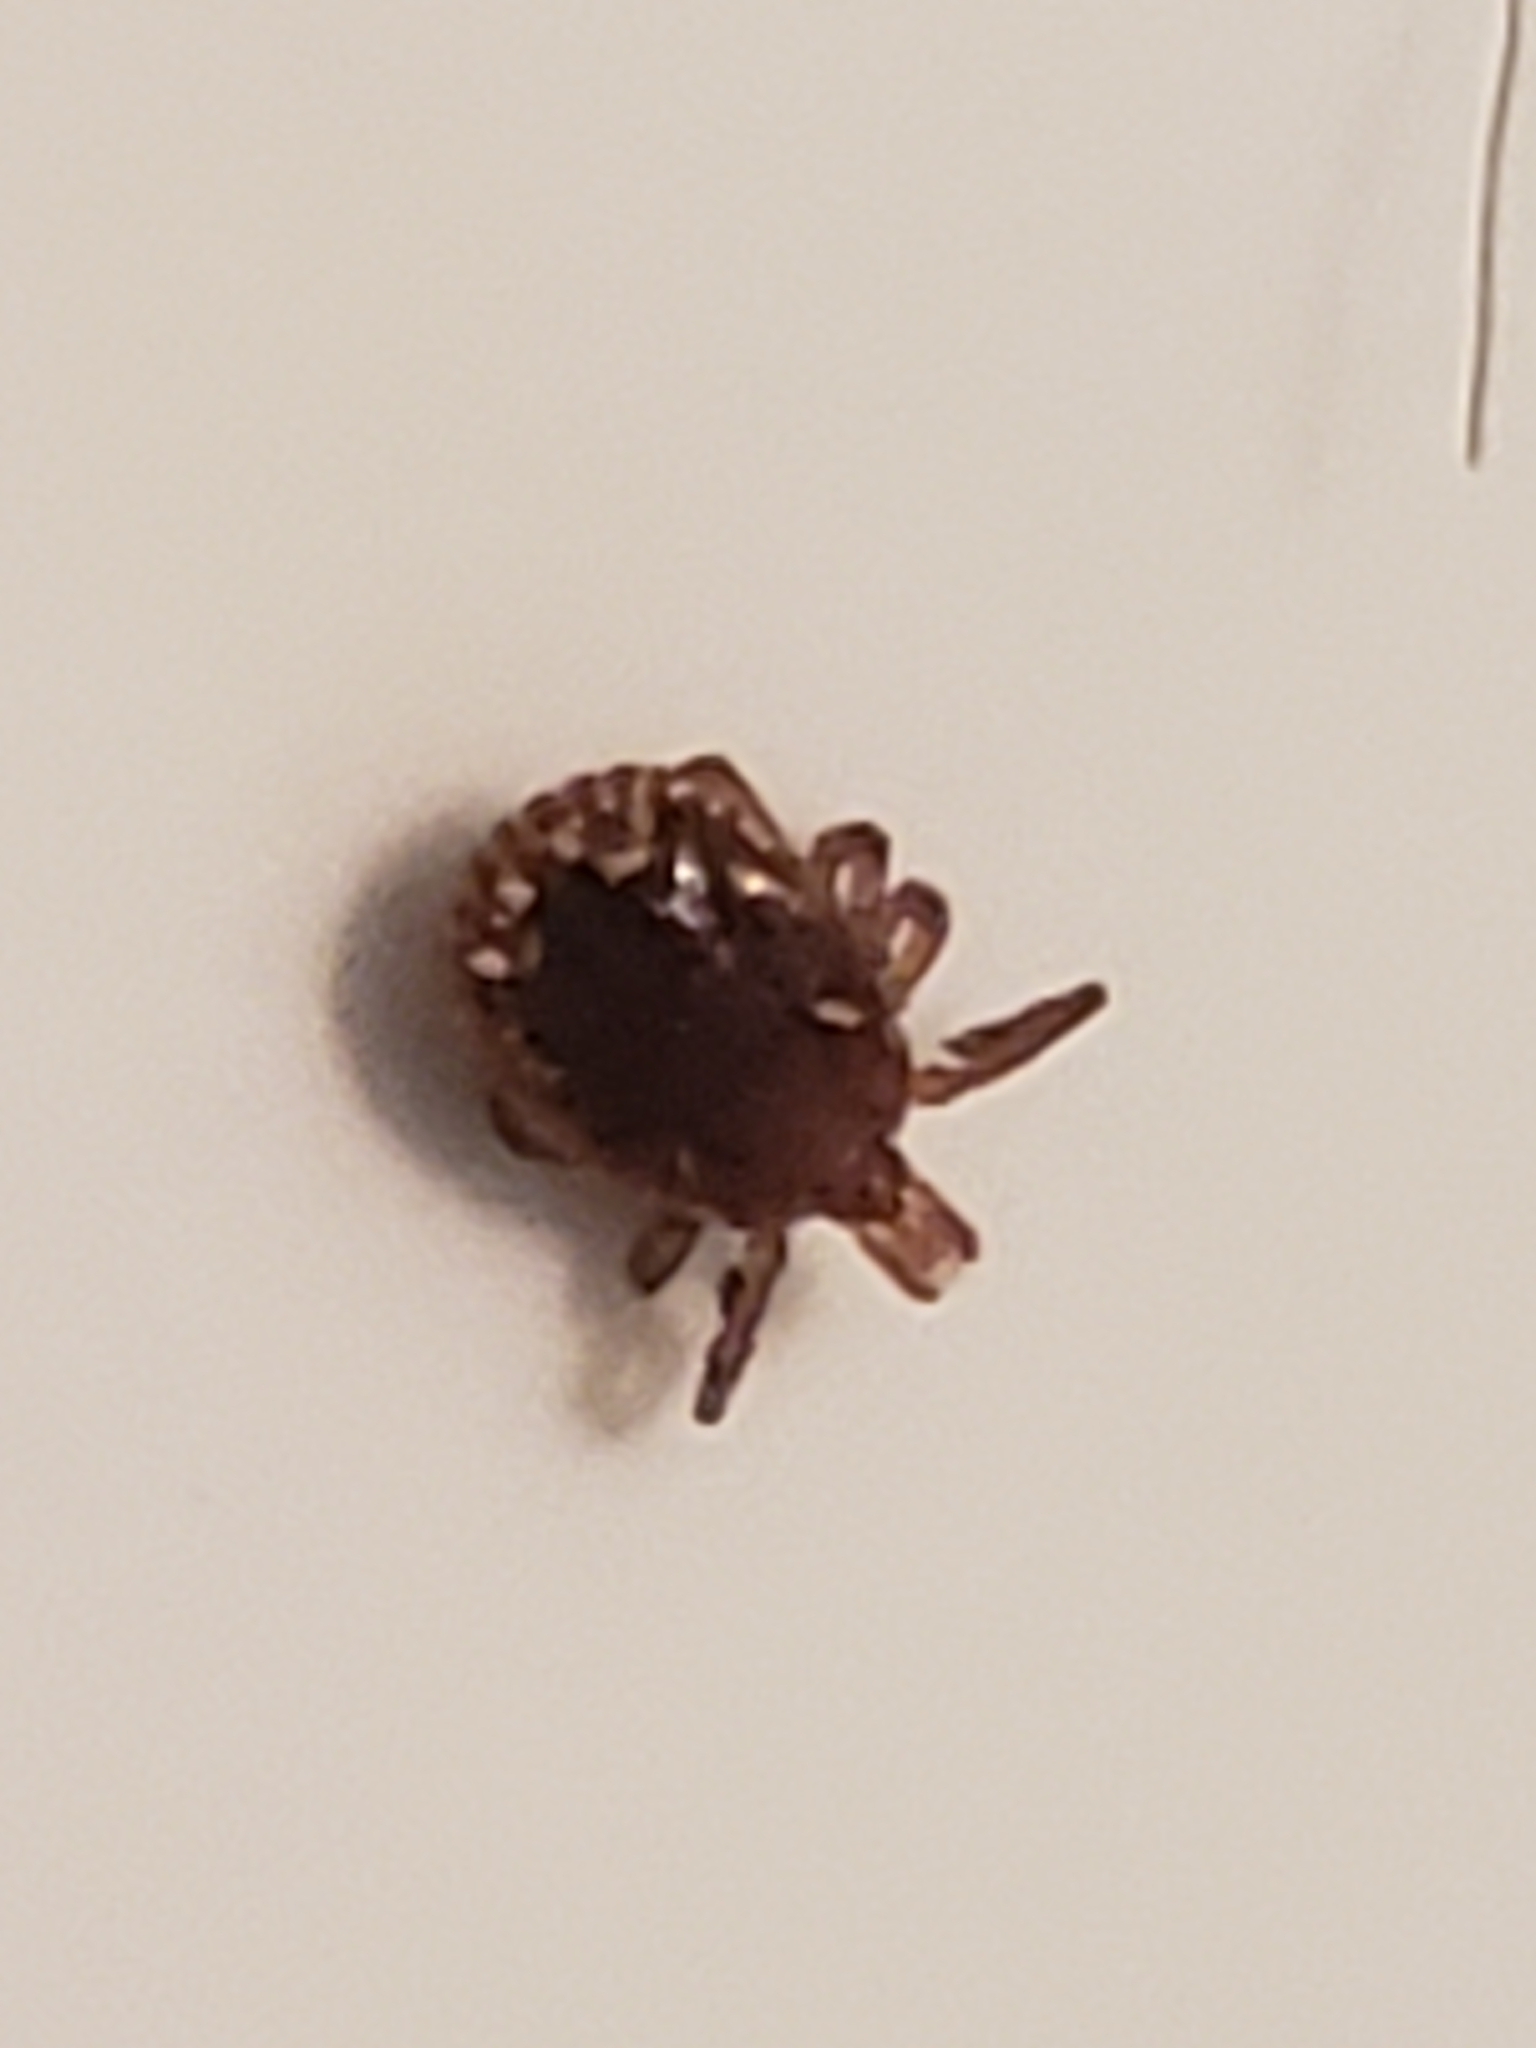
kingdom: Animalia
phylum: Arthropoda
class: Arachnida
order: Ixodida
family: Ixodidae
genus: Amblyomma
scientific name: Amblyomma americanum
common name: Lone star tick
